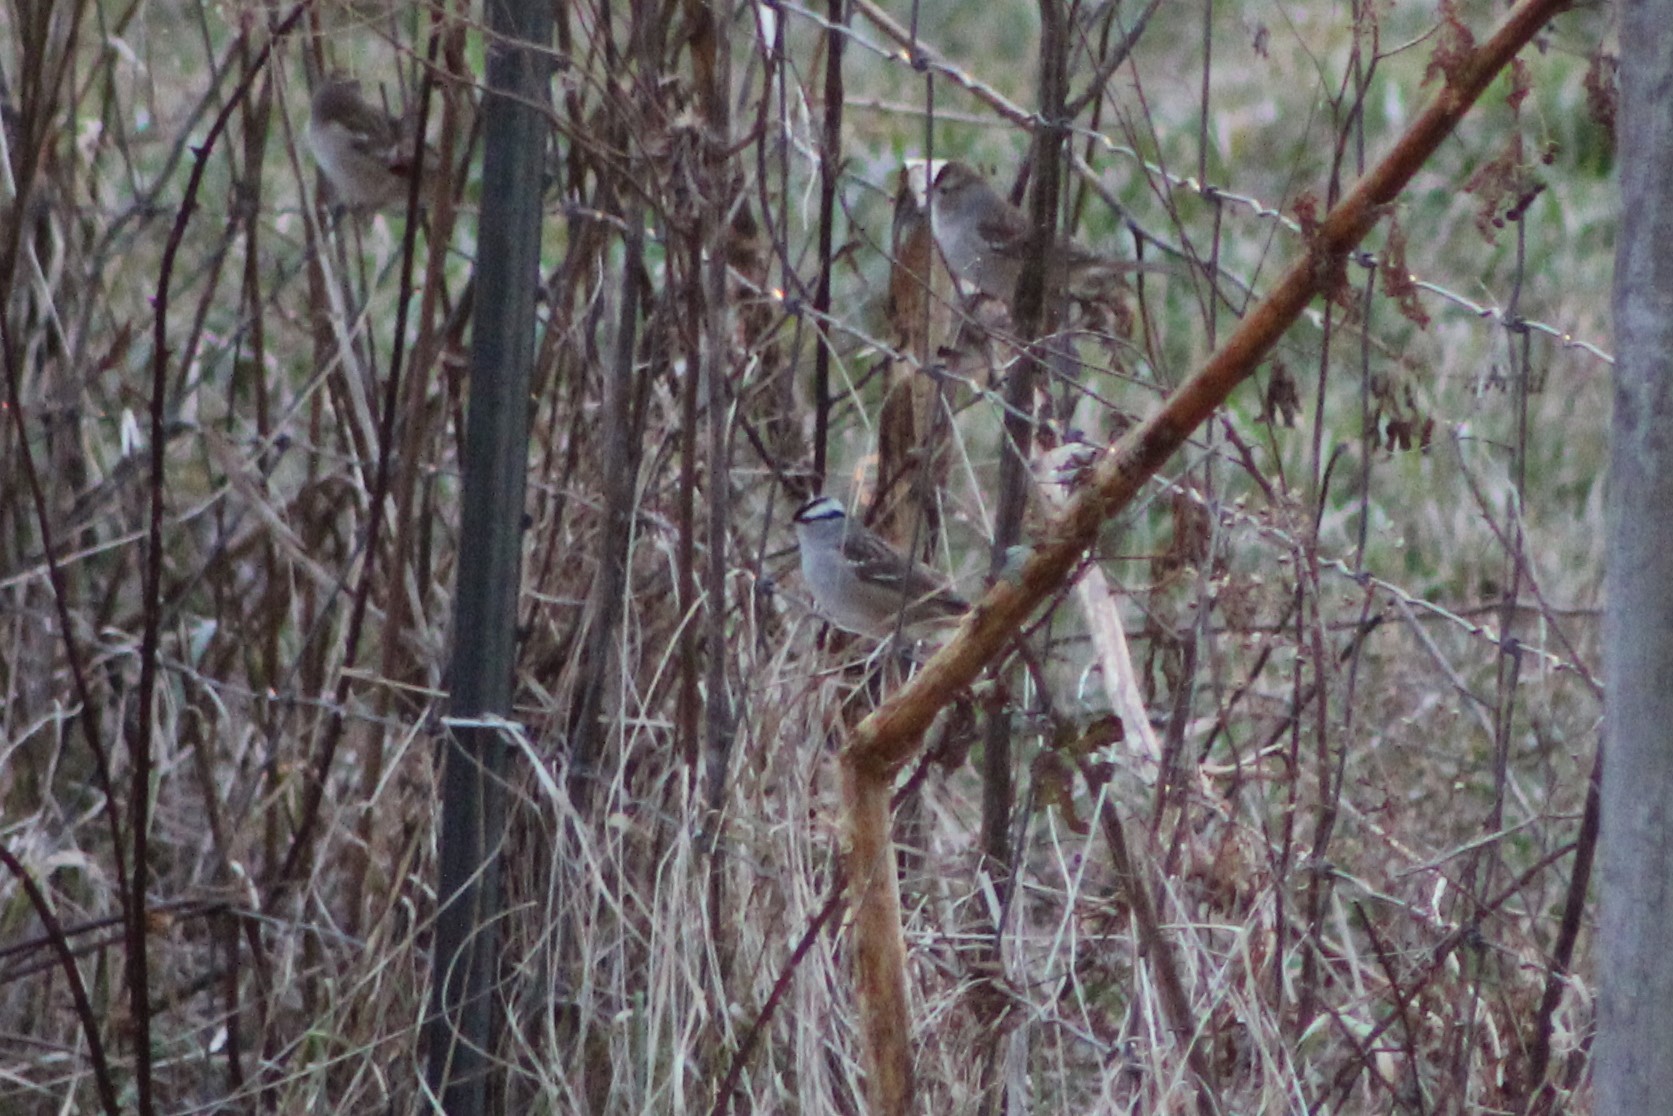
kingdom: Animalia
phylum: Chordata
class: Aves
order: Passeriformes
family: Passerellidae
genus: Zonotrichia
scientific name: Zonotrichia leucophrys
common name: White-crowned sparrow
